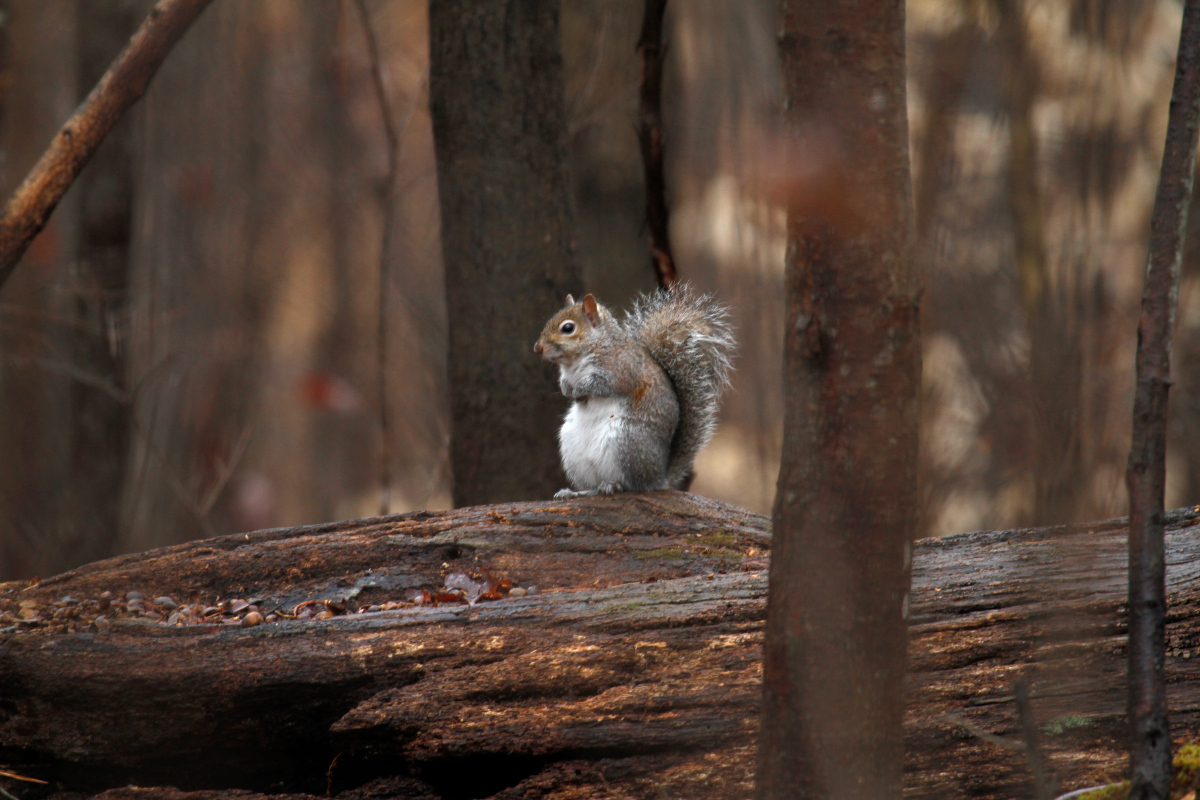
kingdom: Animalia
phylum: Chordata
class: Mammalia
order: Rodentia
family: Sciuridae
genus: Sciurus
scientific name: Sciurus carolinensis
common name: Eastern gray squirrel
